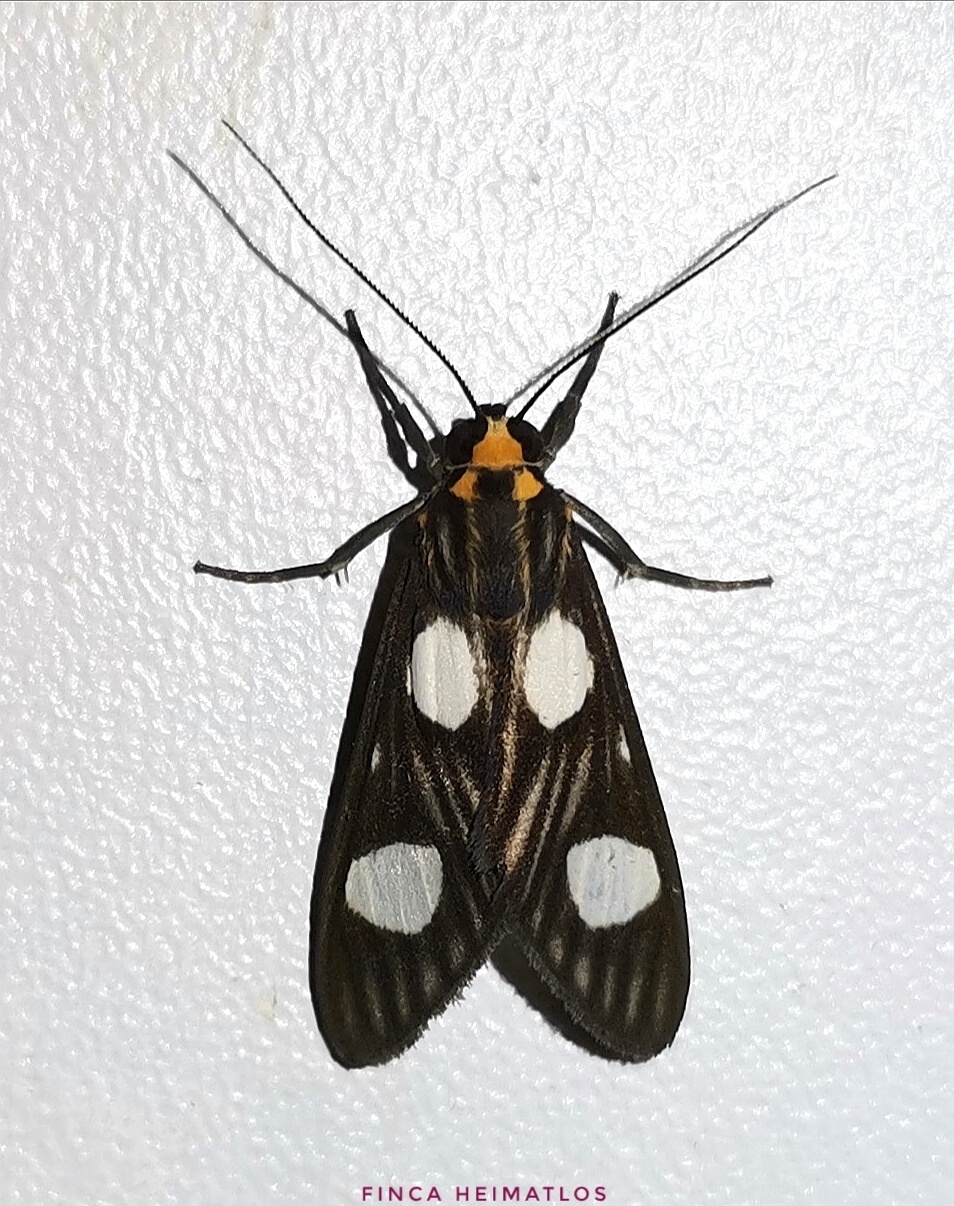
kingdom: Animalia
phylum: Arthropoda
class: Insecta
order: Lepidoptera
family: Erebidae
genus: Glaucostola
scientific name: Glaucostola binotata
